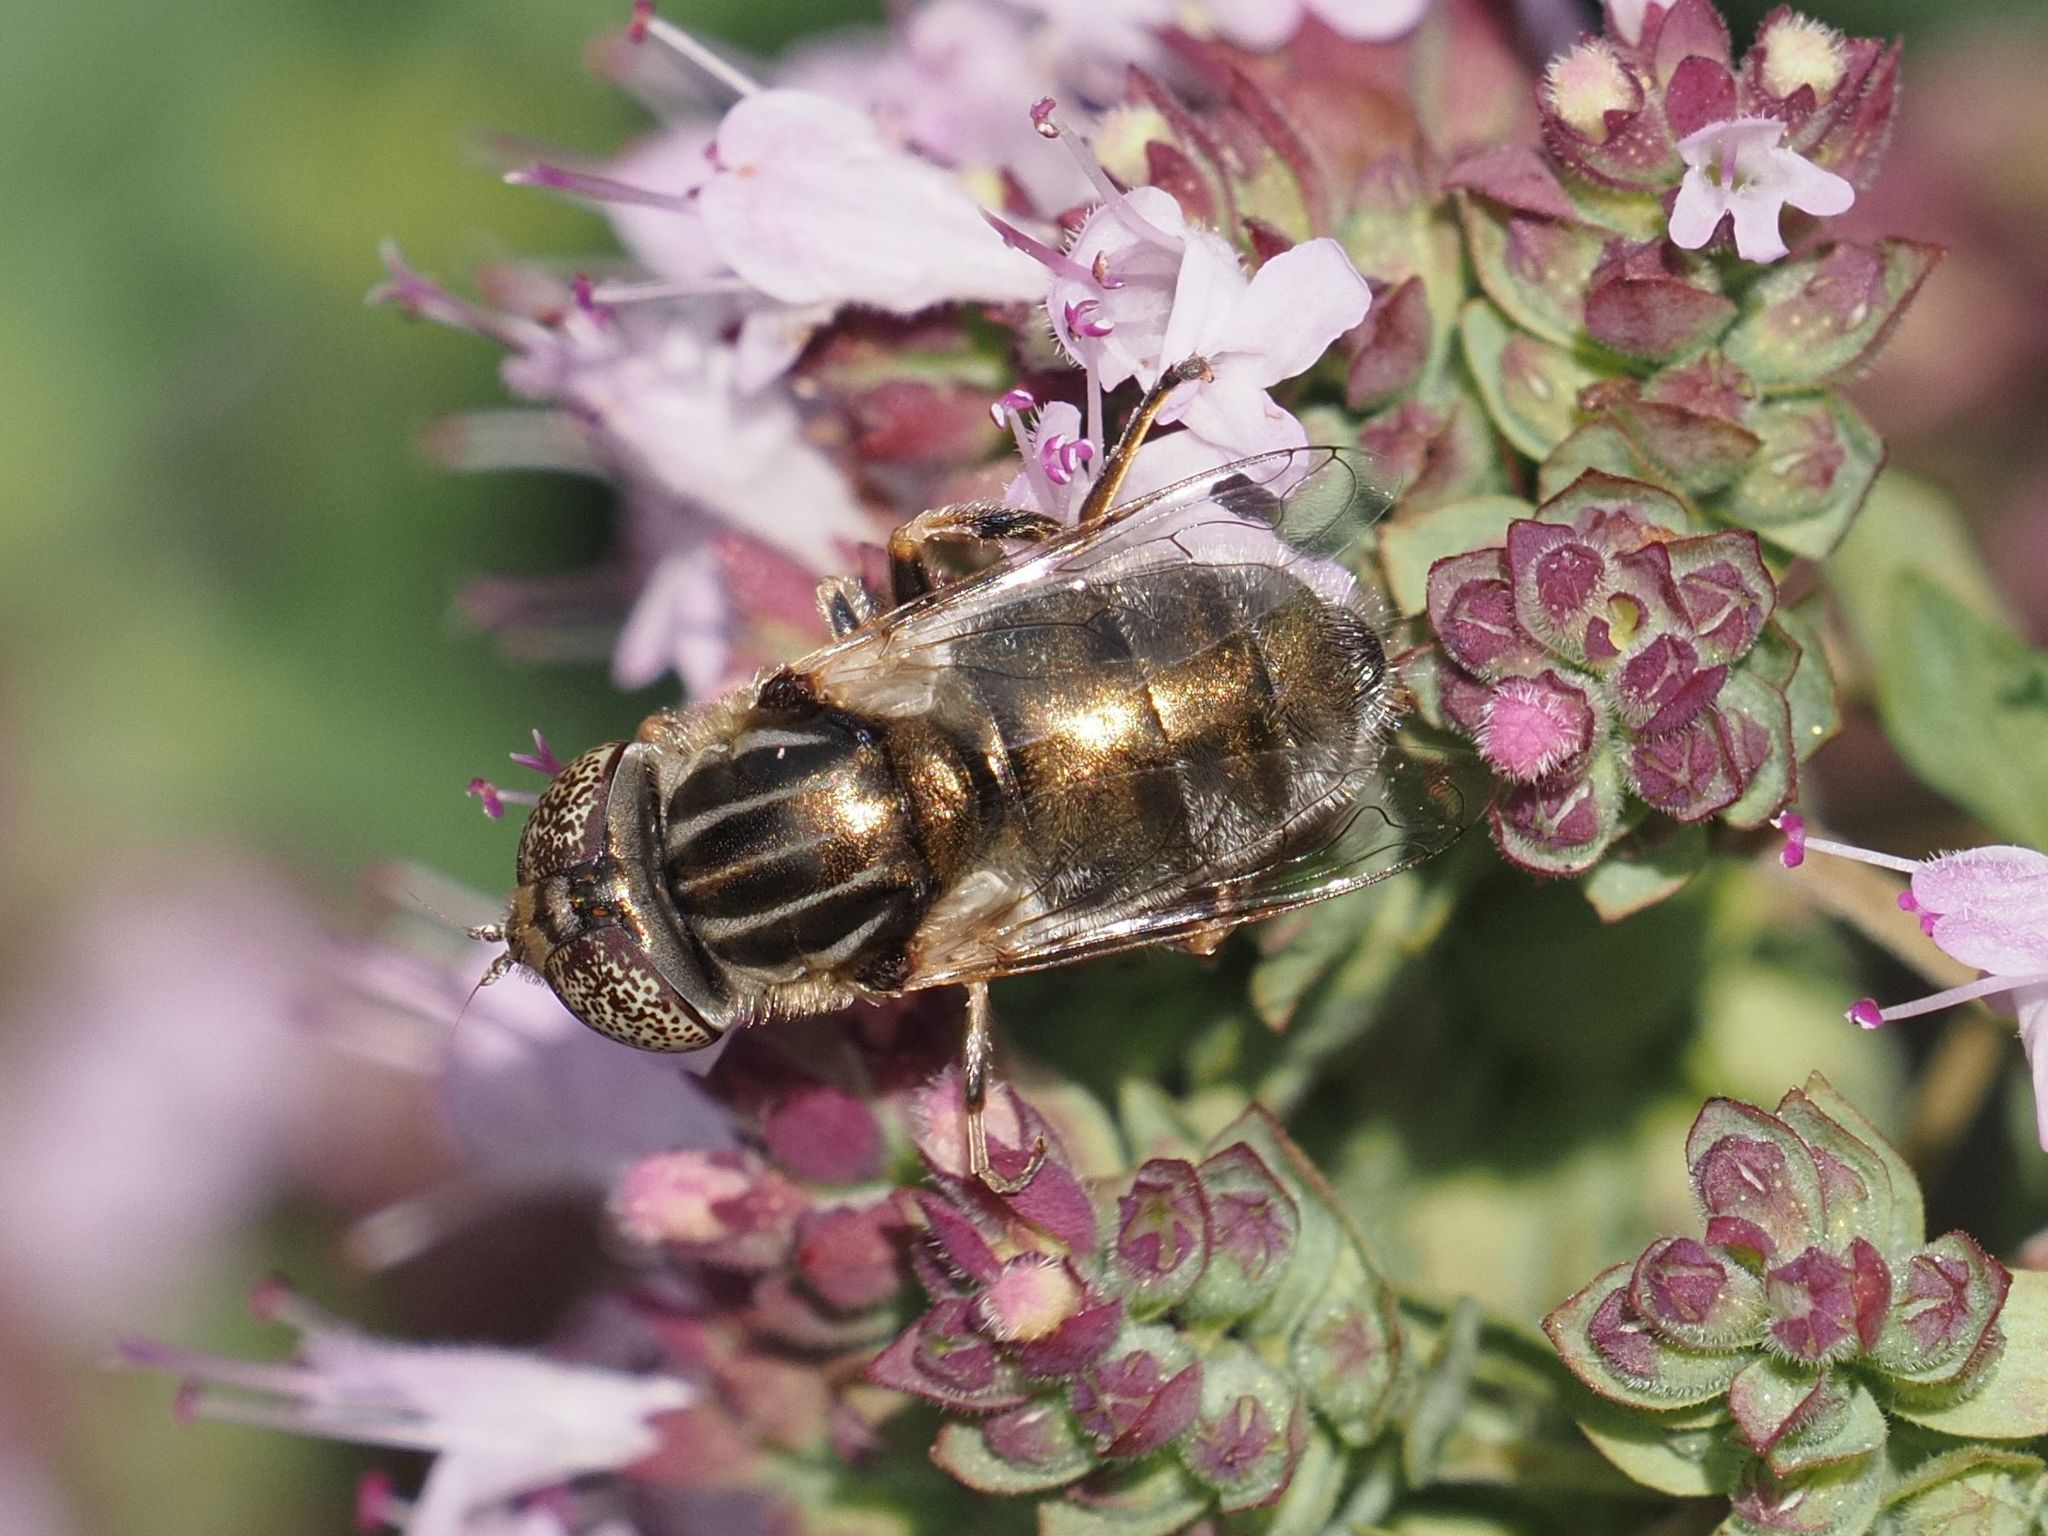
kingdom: Animalia
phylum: Arthropoda
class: Insecta
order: Diptera
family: Syrphidae
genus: Eristalinus
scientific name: Eristalinus aeneus
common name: Syrphid fly
